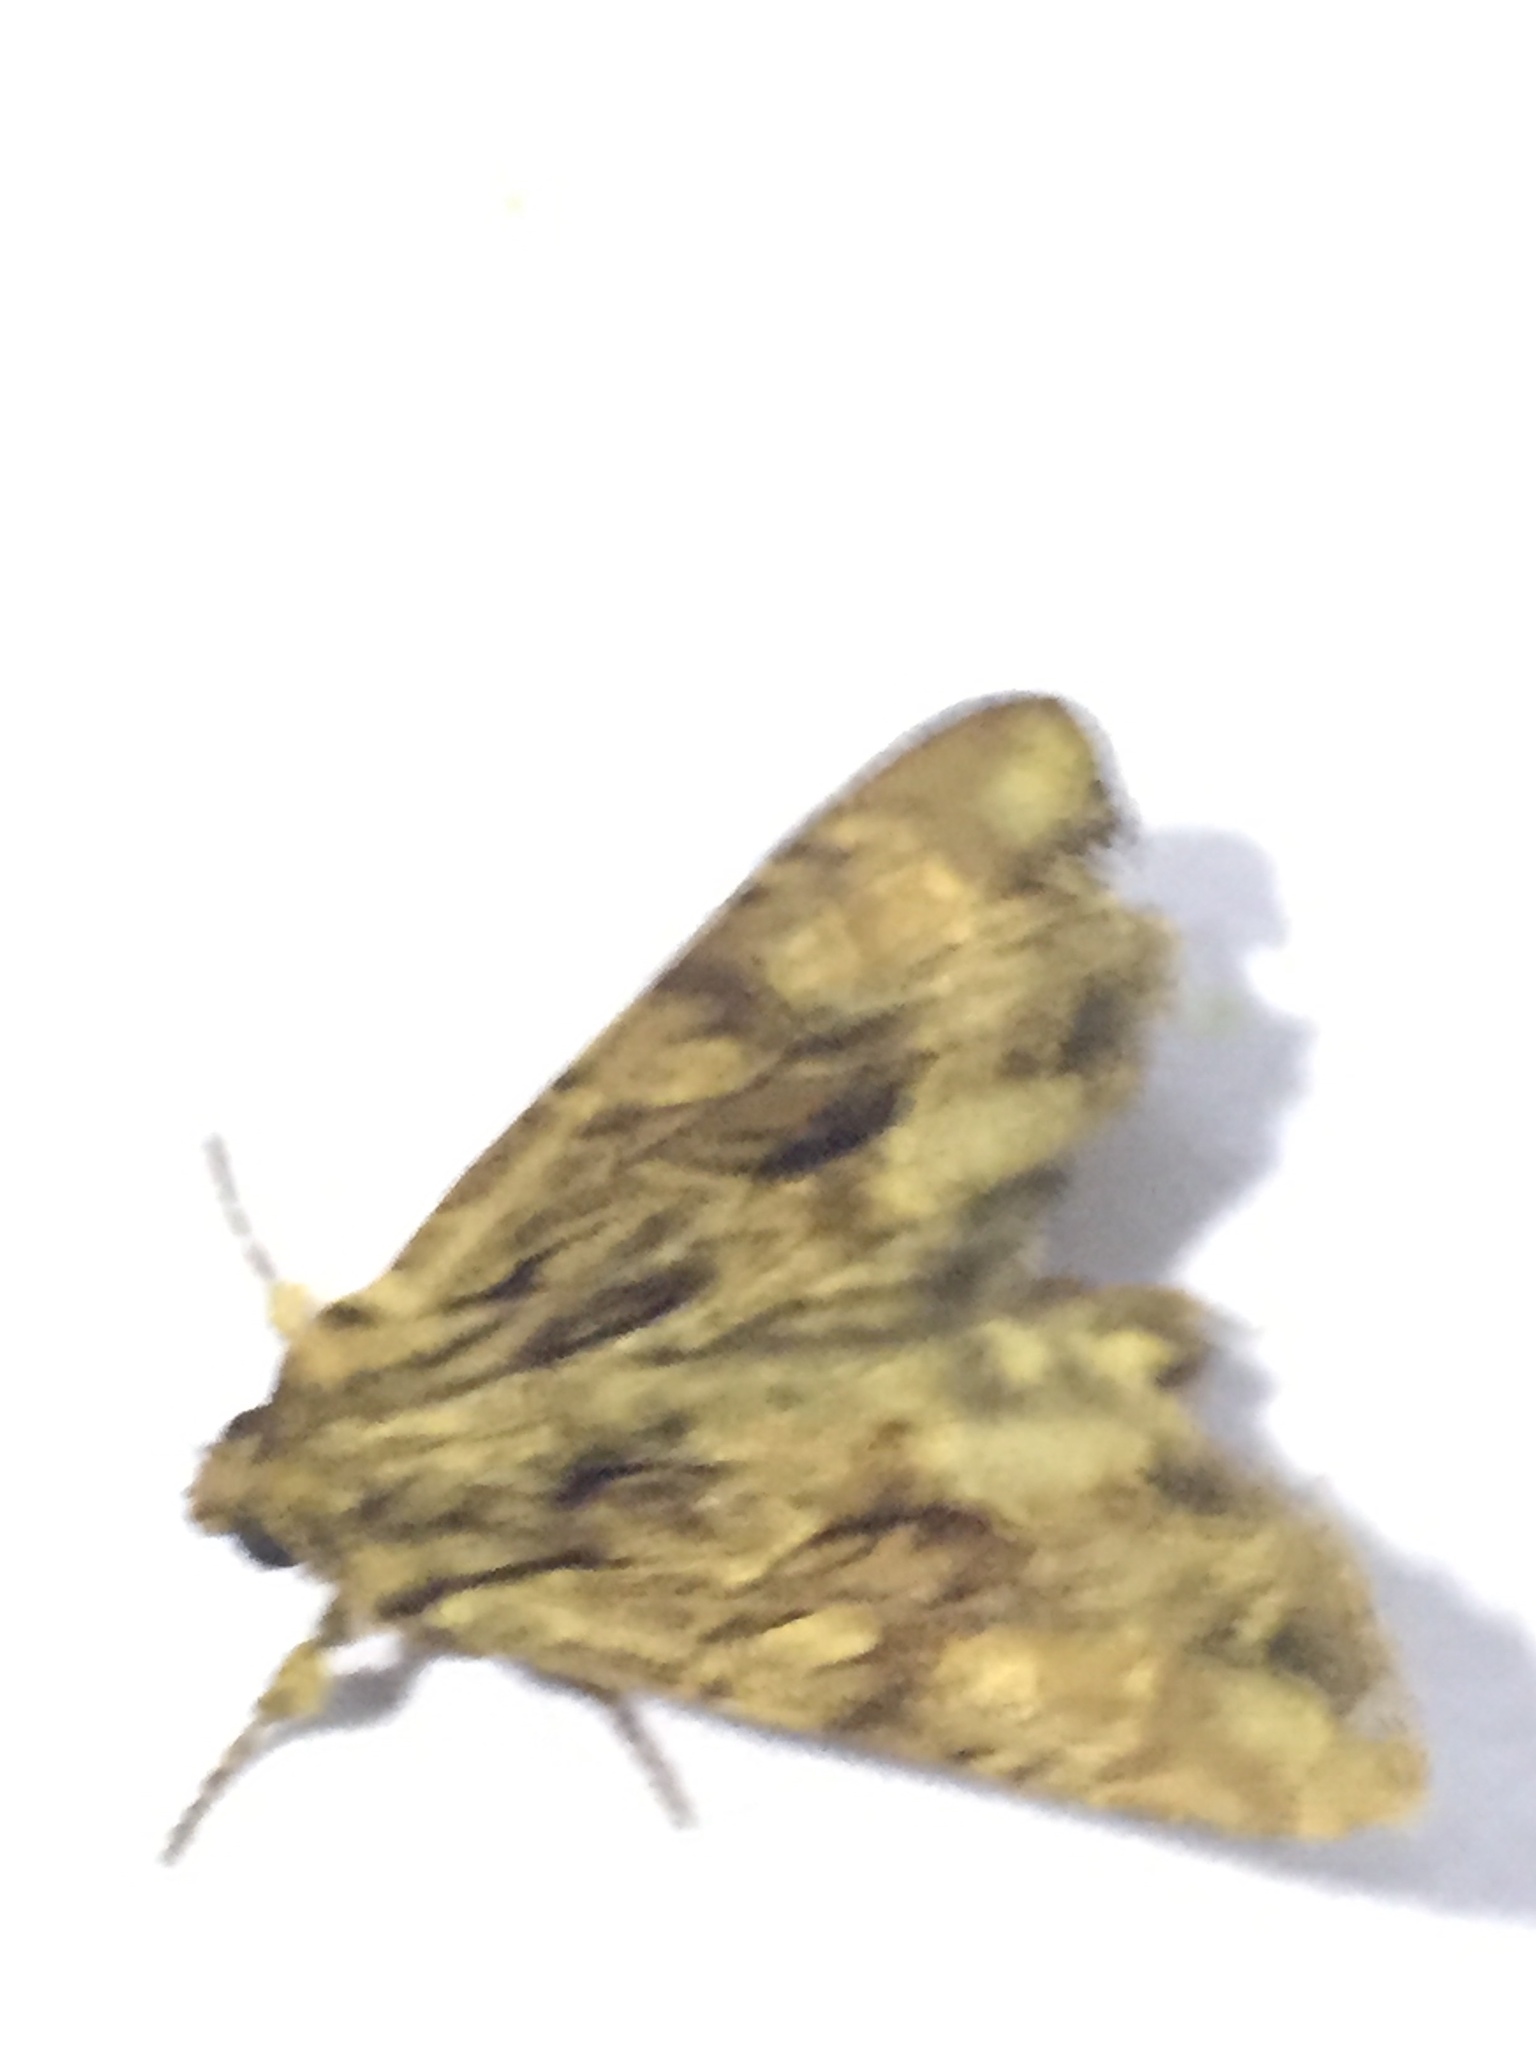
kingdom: Animalia
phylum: Arthropoda
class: Insecta
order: Lepidoptera
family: Noctuidae
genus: Apamea
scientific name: Apamea monoglypha
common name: Dark arches
